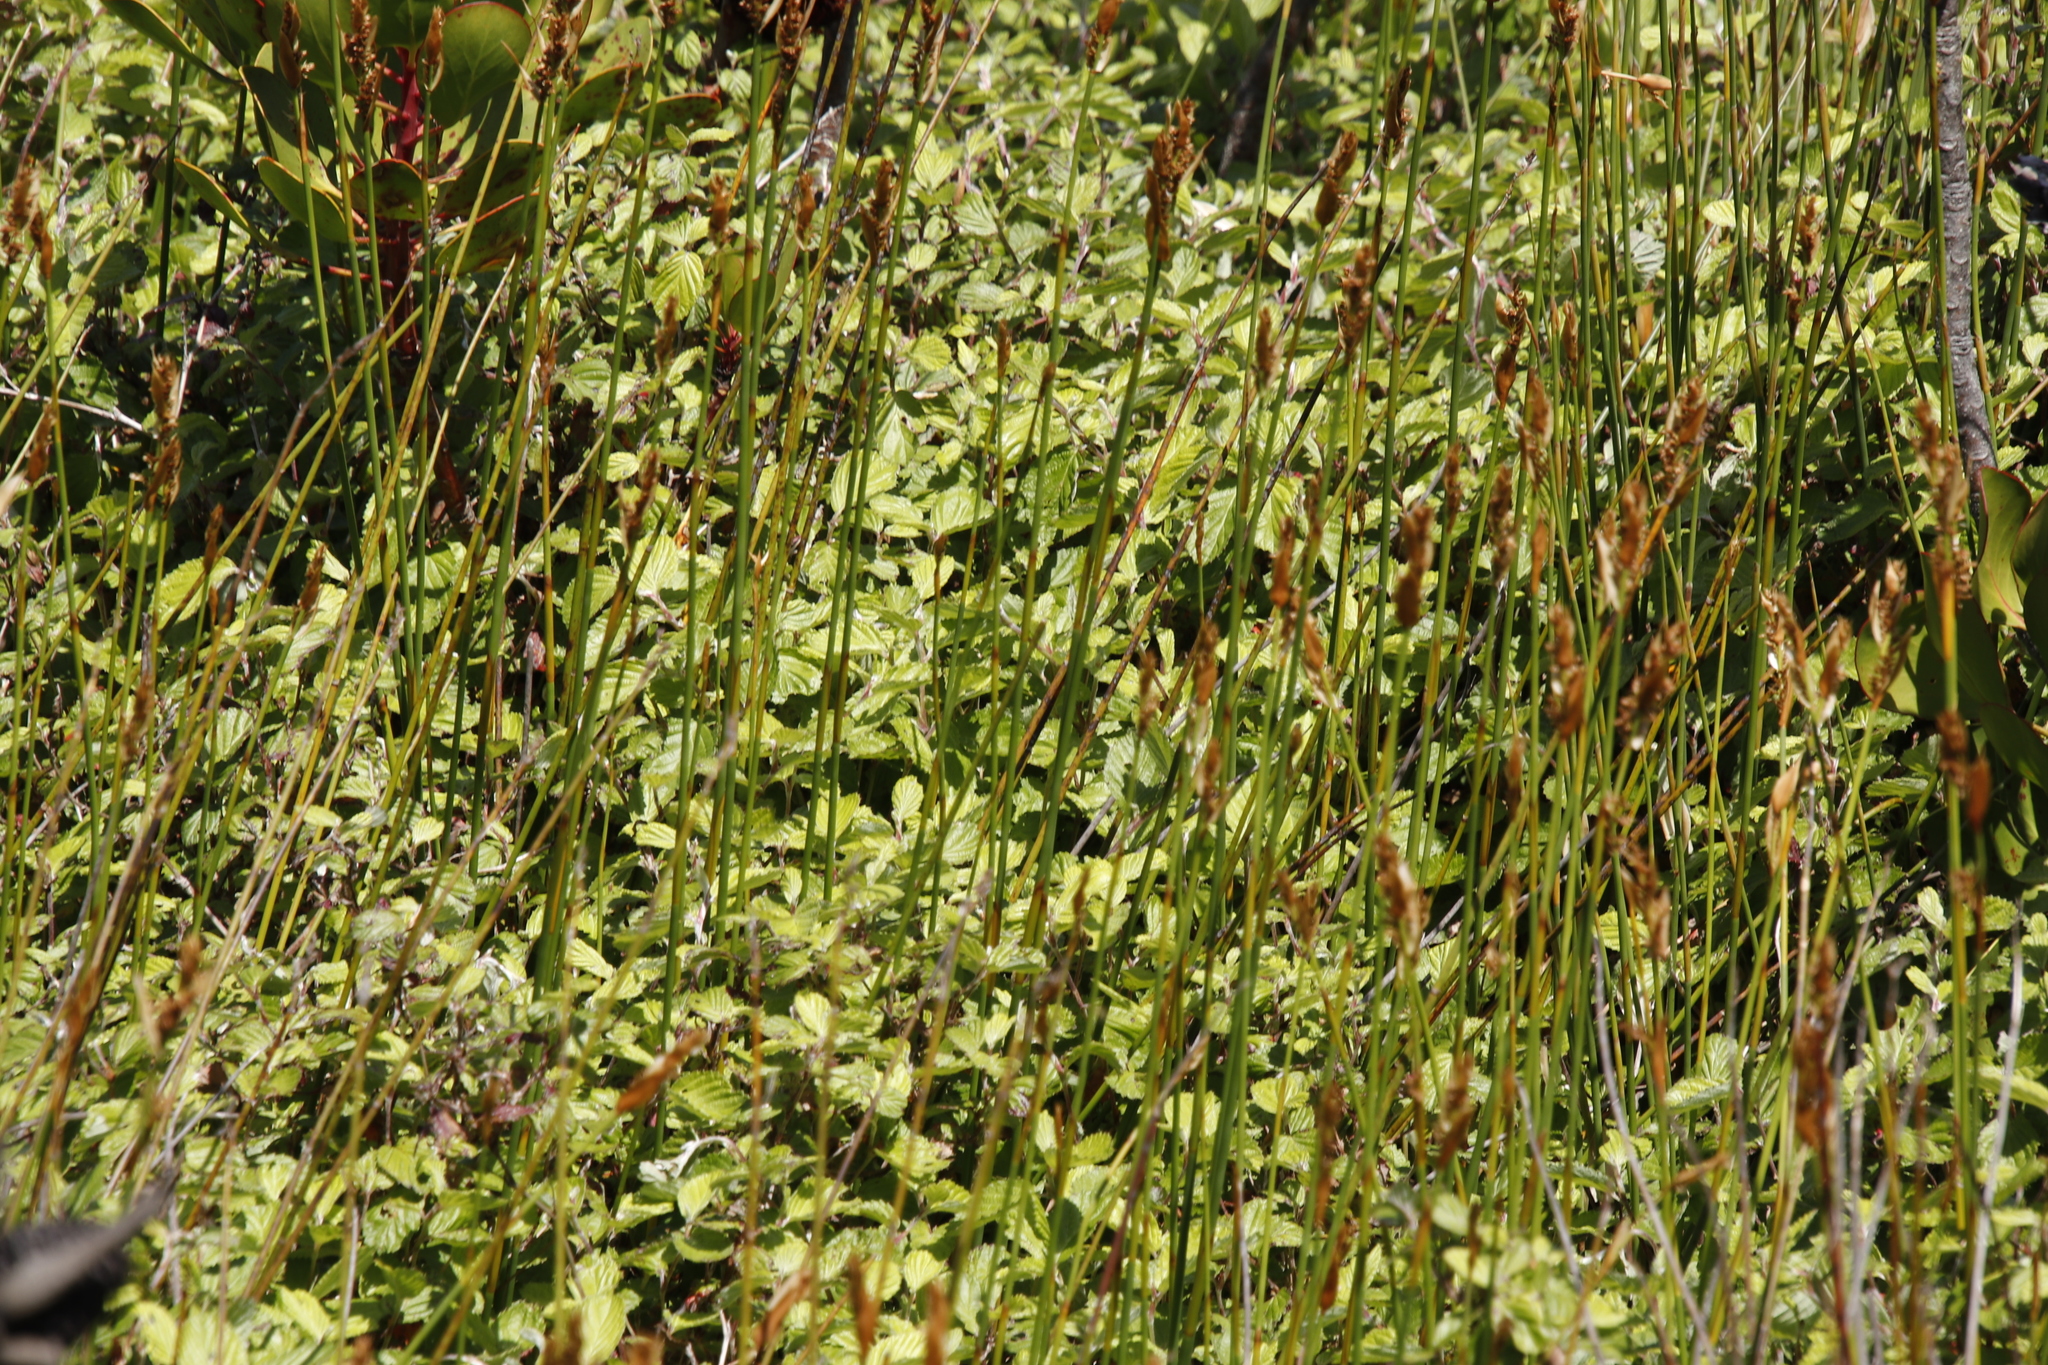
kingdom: Plantae
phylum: Tracheophyta
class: Magnoliopsida
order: Rosales
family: Rosaceae
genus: Cliffortia
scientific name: Cliffortia odorata
